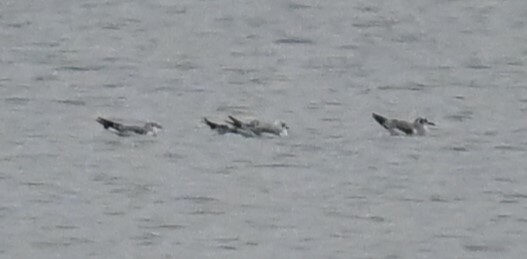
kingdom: Animalia
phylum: Chordata
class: Aves
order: Charadriiformes
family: Laridae
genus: Chroicocephalus
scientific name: Chroicocephalus philadelphia
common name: Bonaparte's gull
